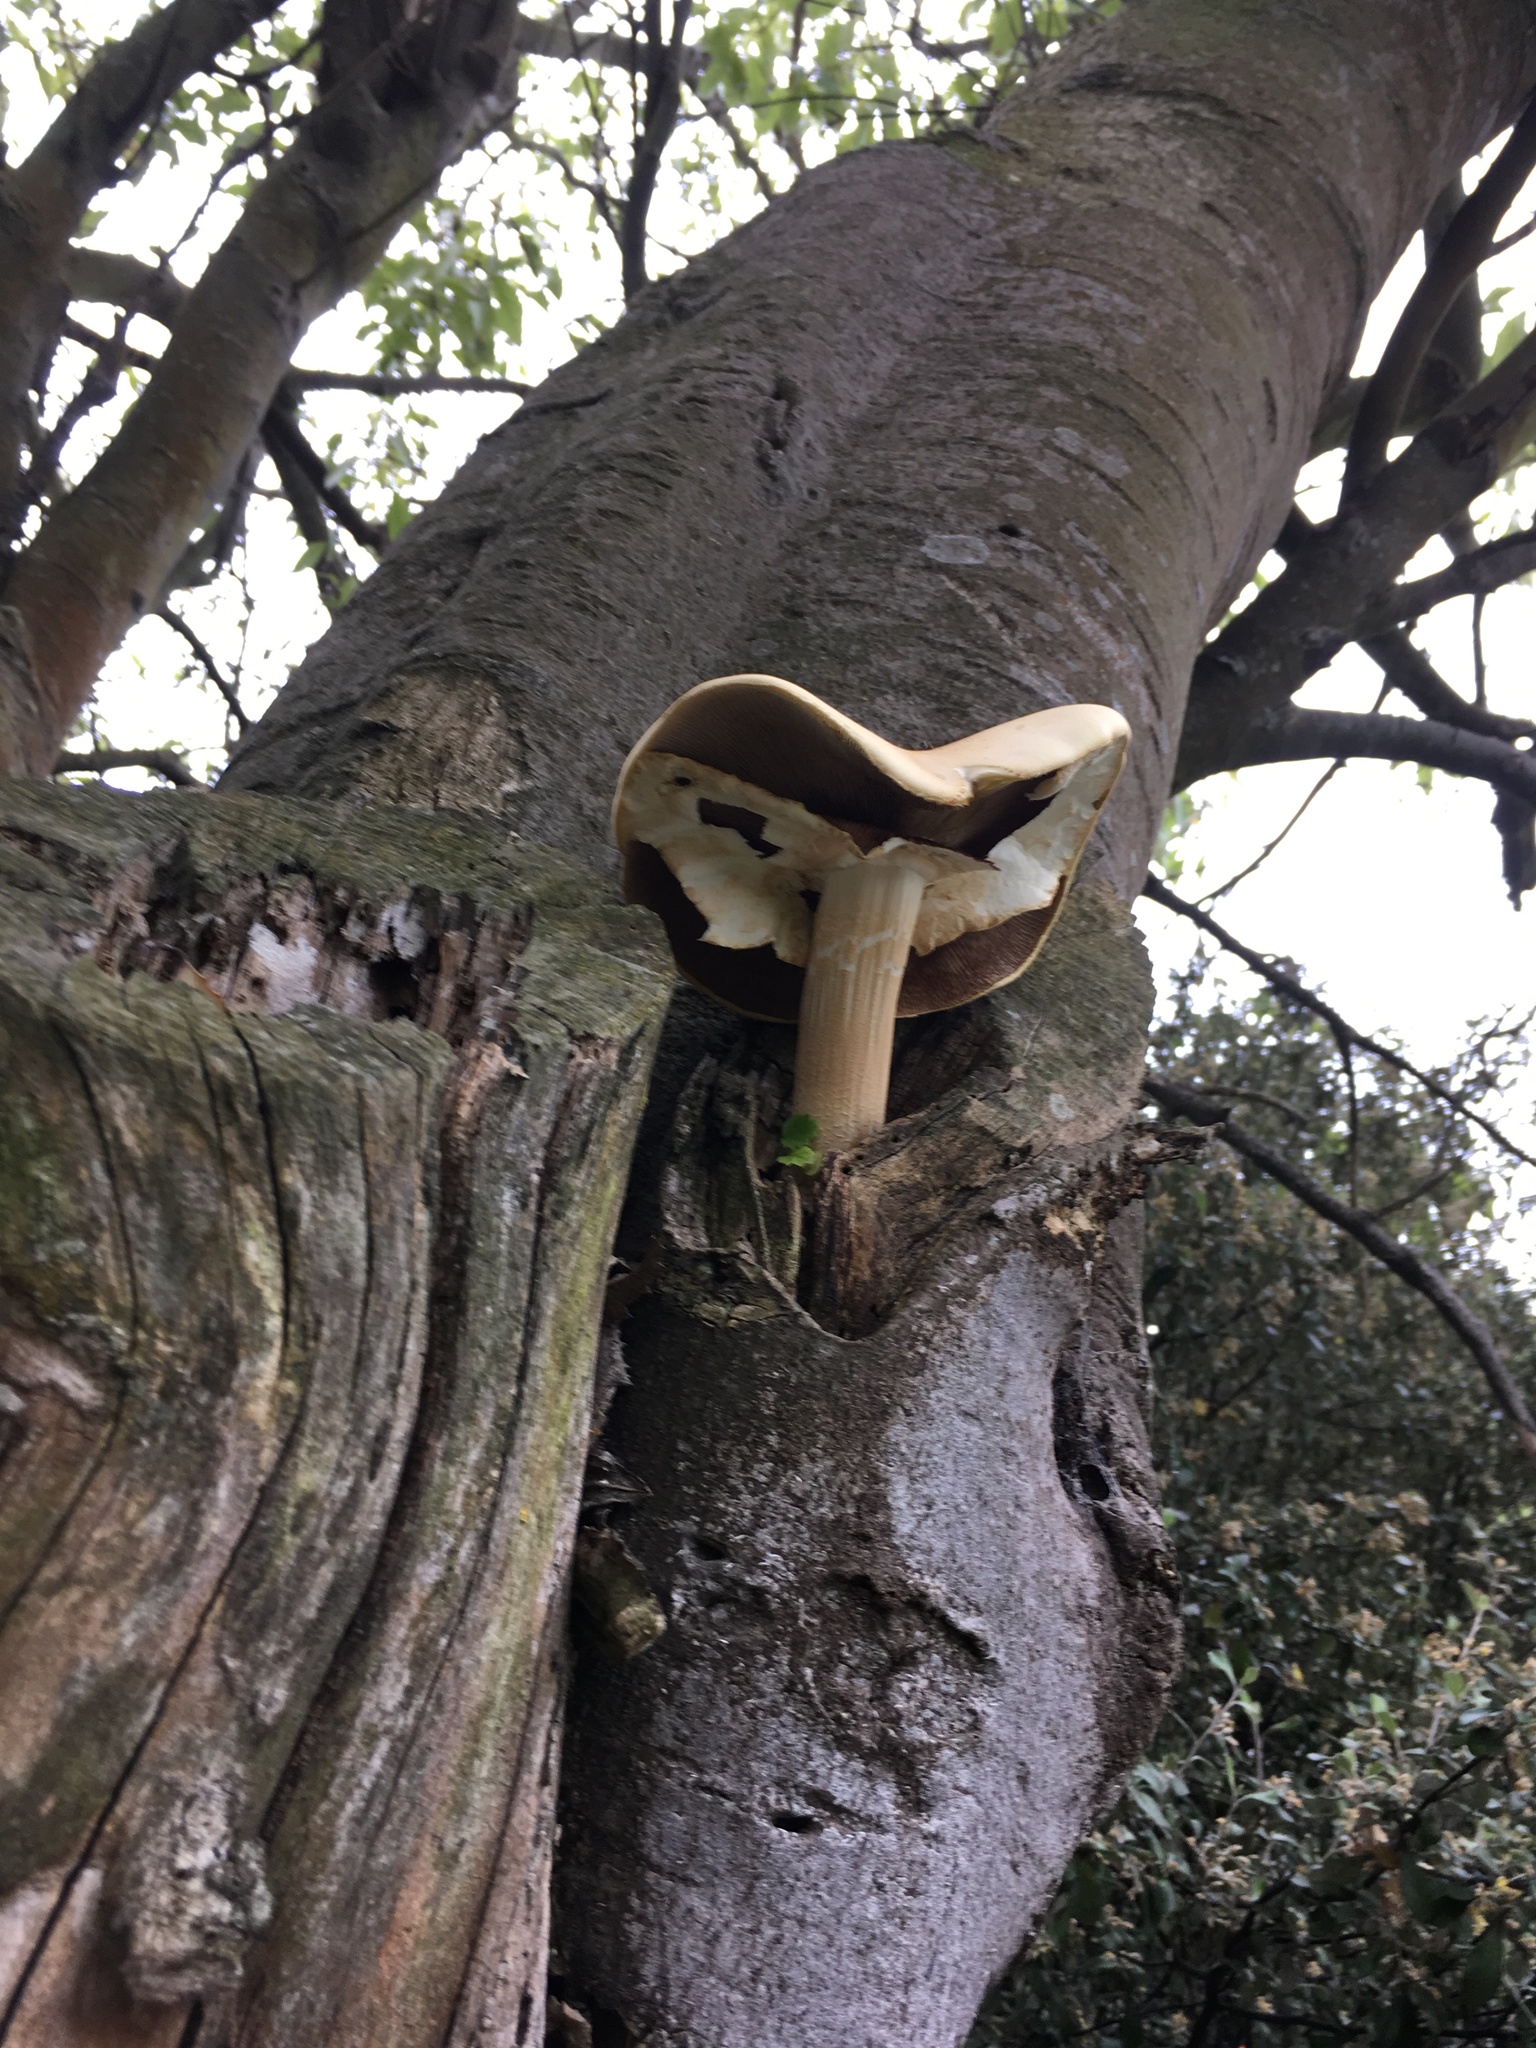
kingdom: Fungi
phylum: Basidiomycota
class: Agaricomycetes
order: Agaricales
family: Tubariaceae
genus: Cyclocybe
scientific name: Cyclocybe parasitica
